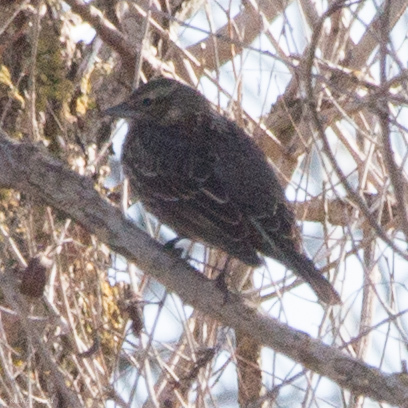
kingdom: Animalia
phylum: Chordata
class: Aves
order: Passeriformes
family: Icteridae
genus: Agelaius
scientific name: Agelaius phoeniceus
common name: Red-winged blackbird
